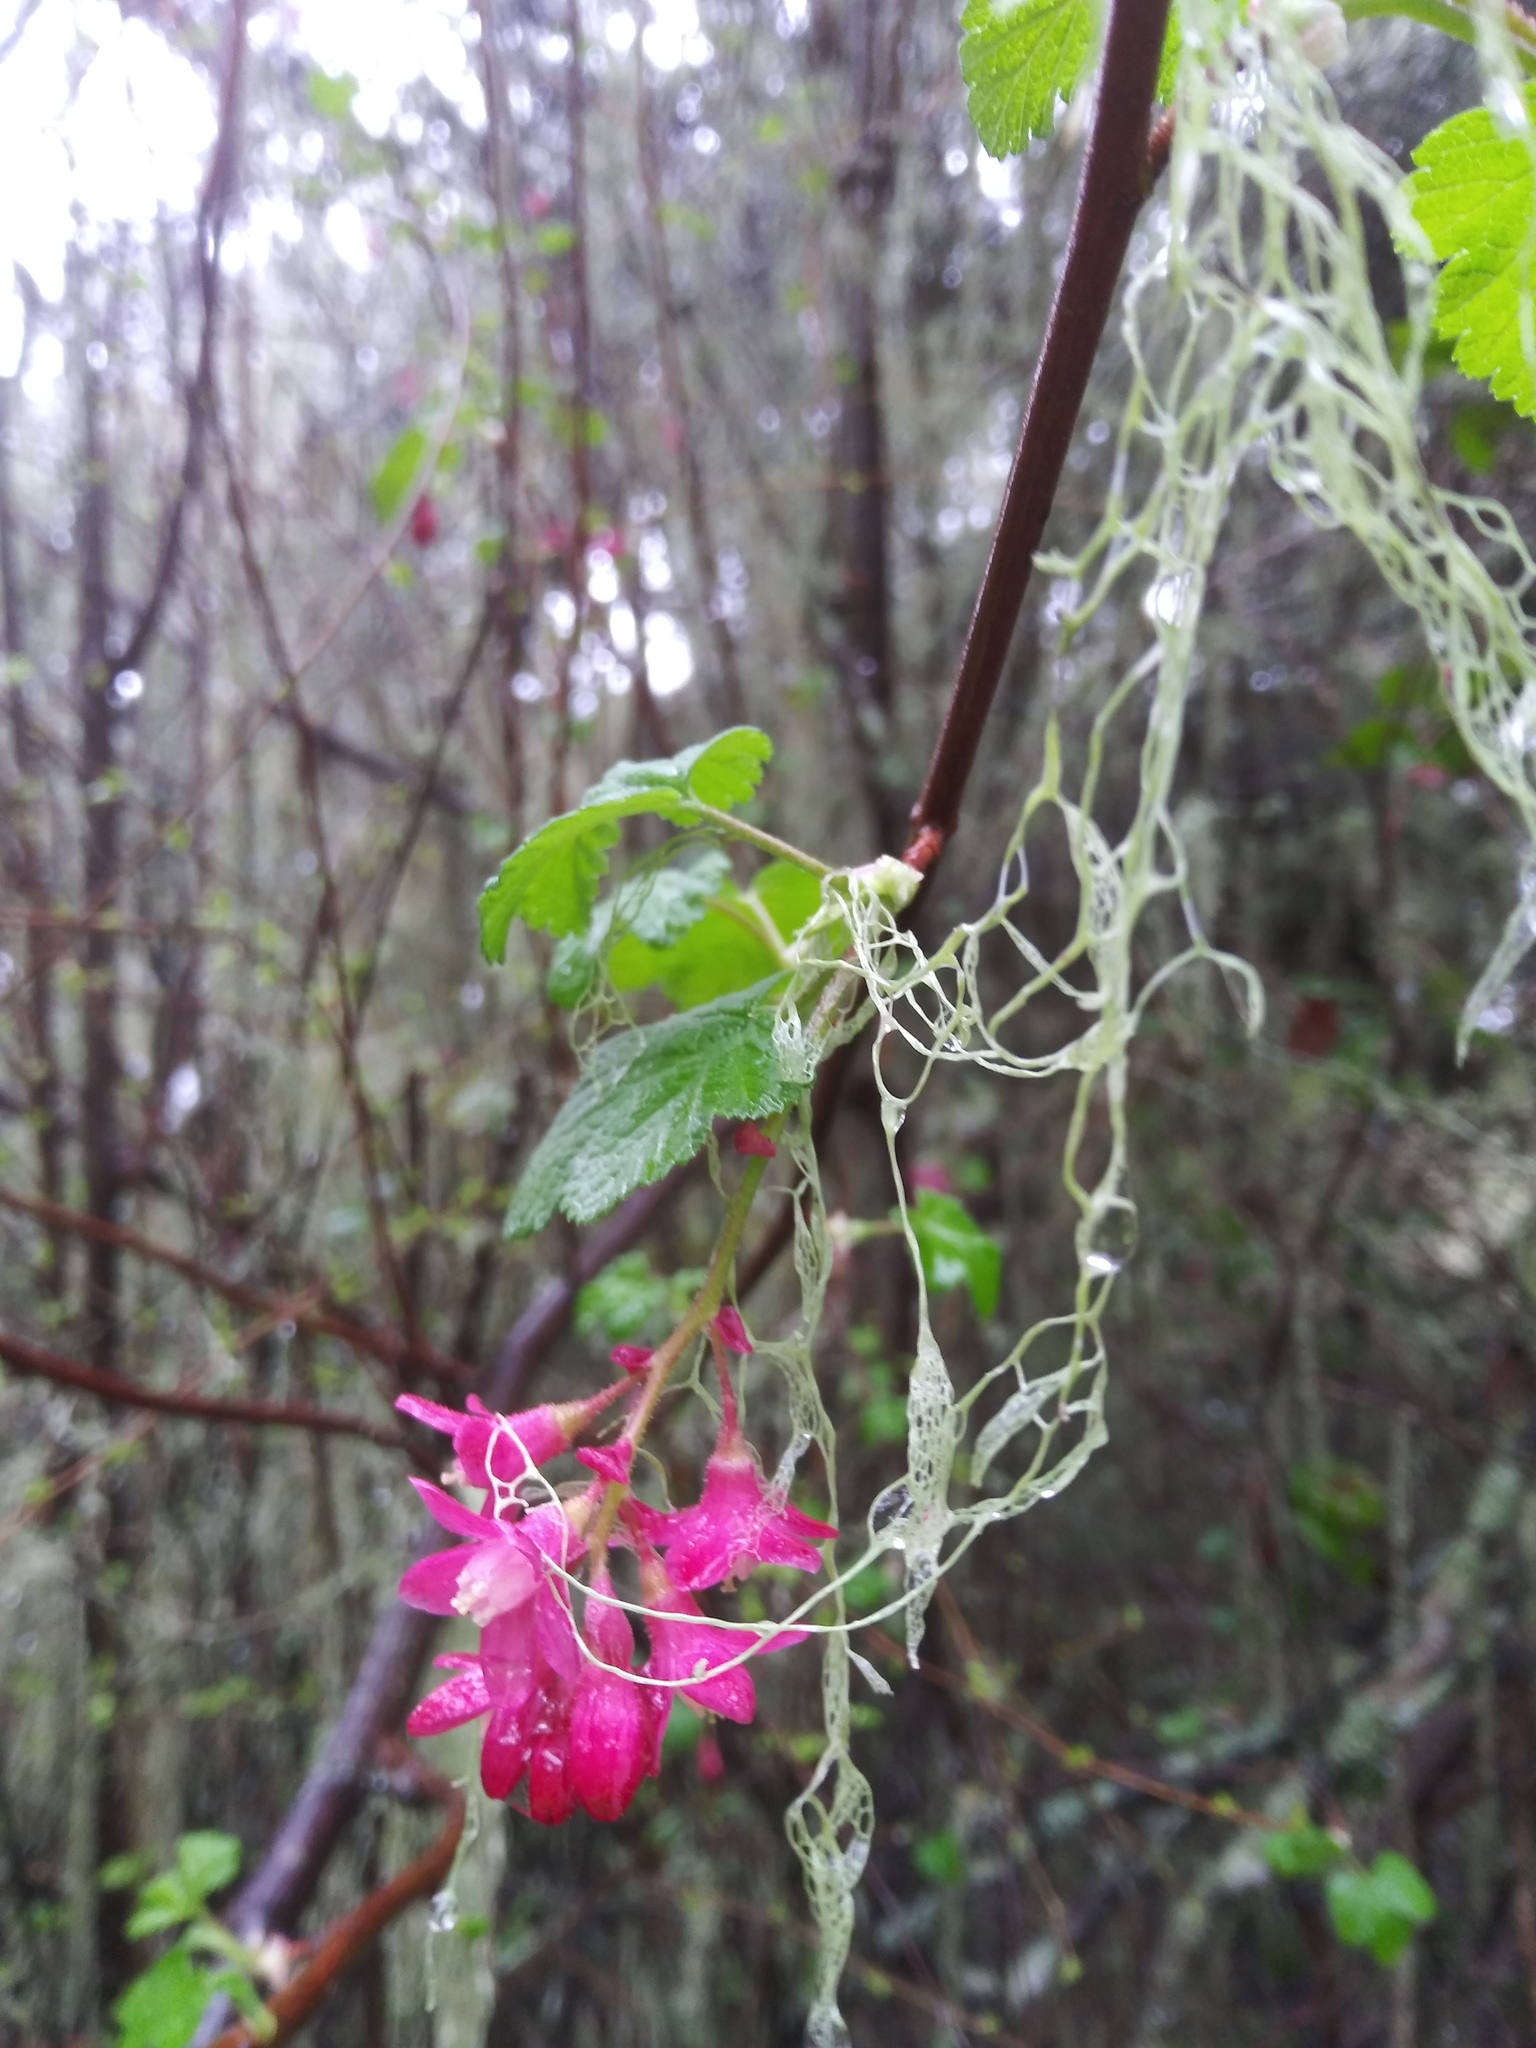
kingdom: Plantae
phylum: Tracheophyta
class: Magnoliopsida
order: Saxifragales
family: Grossulariaceae
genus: Ribes
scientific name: Ribes sanguineum
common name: Flowering currant
